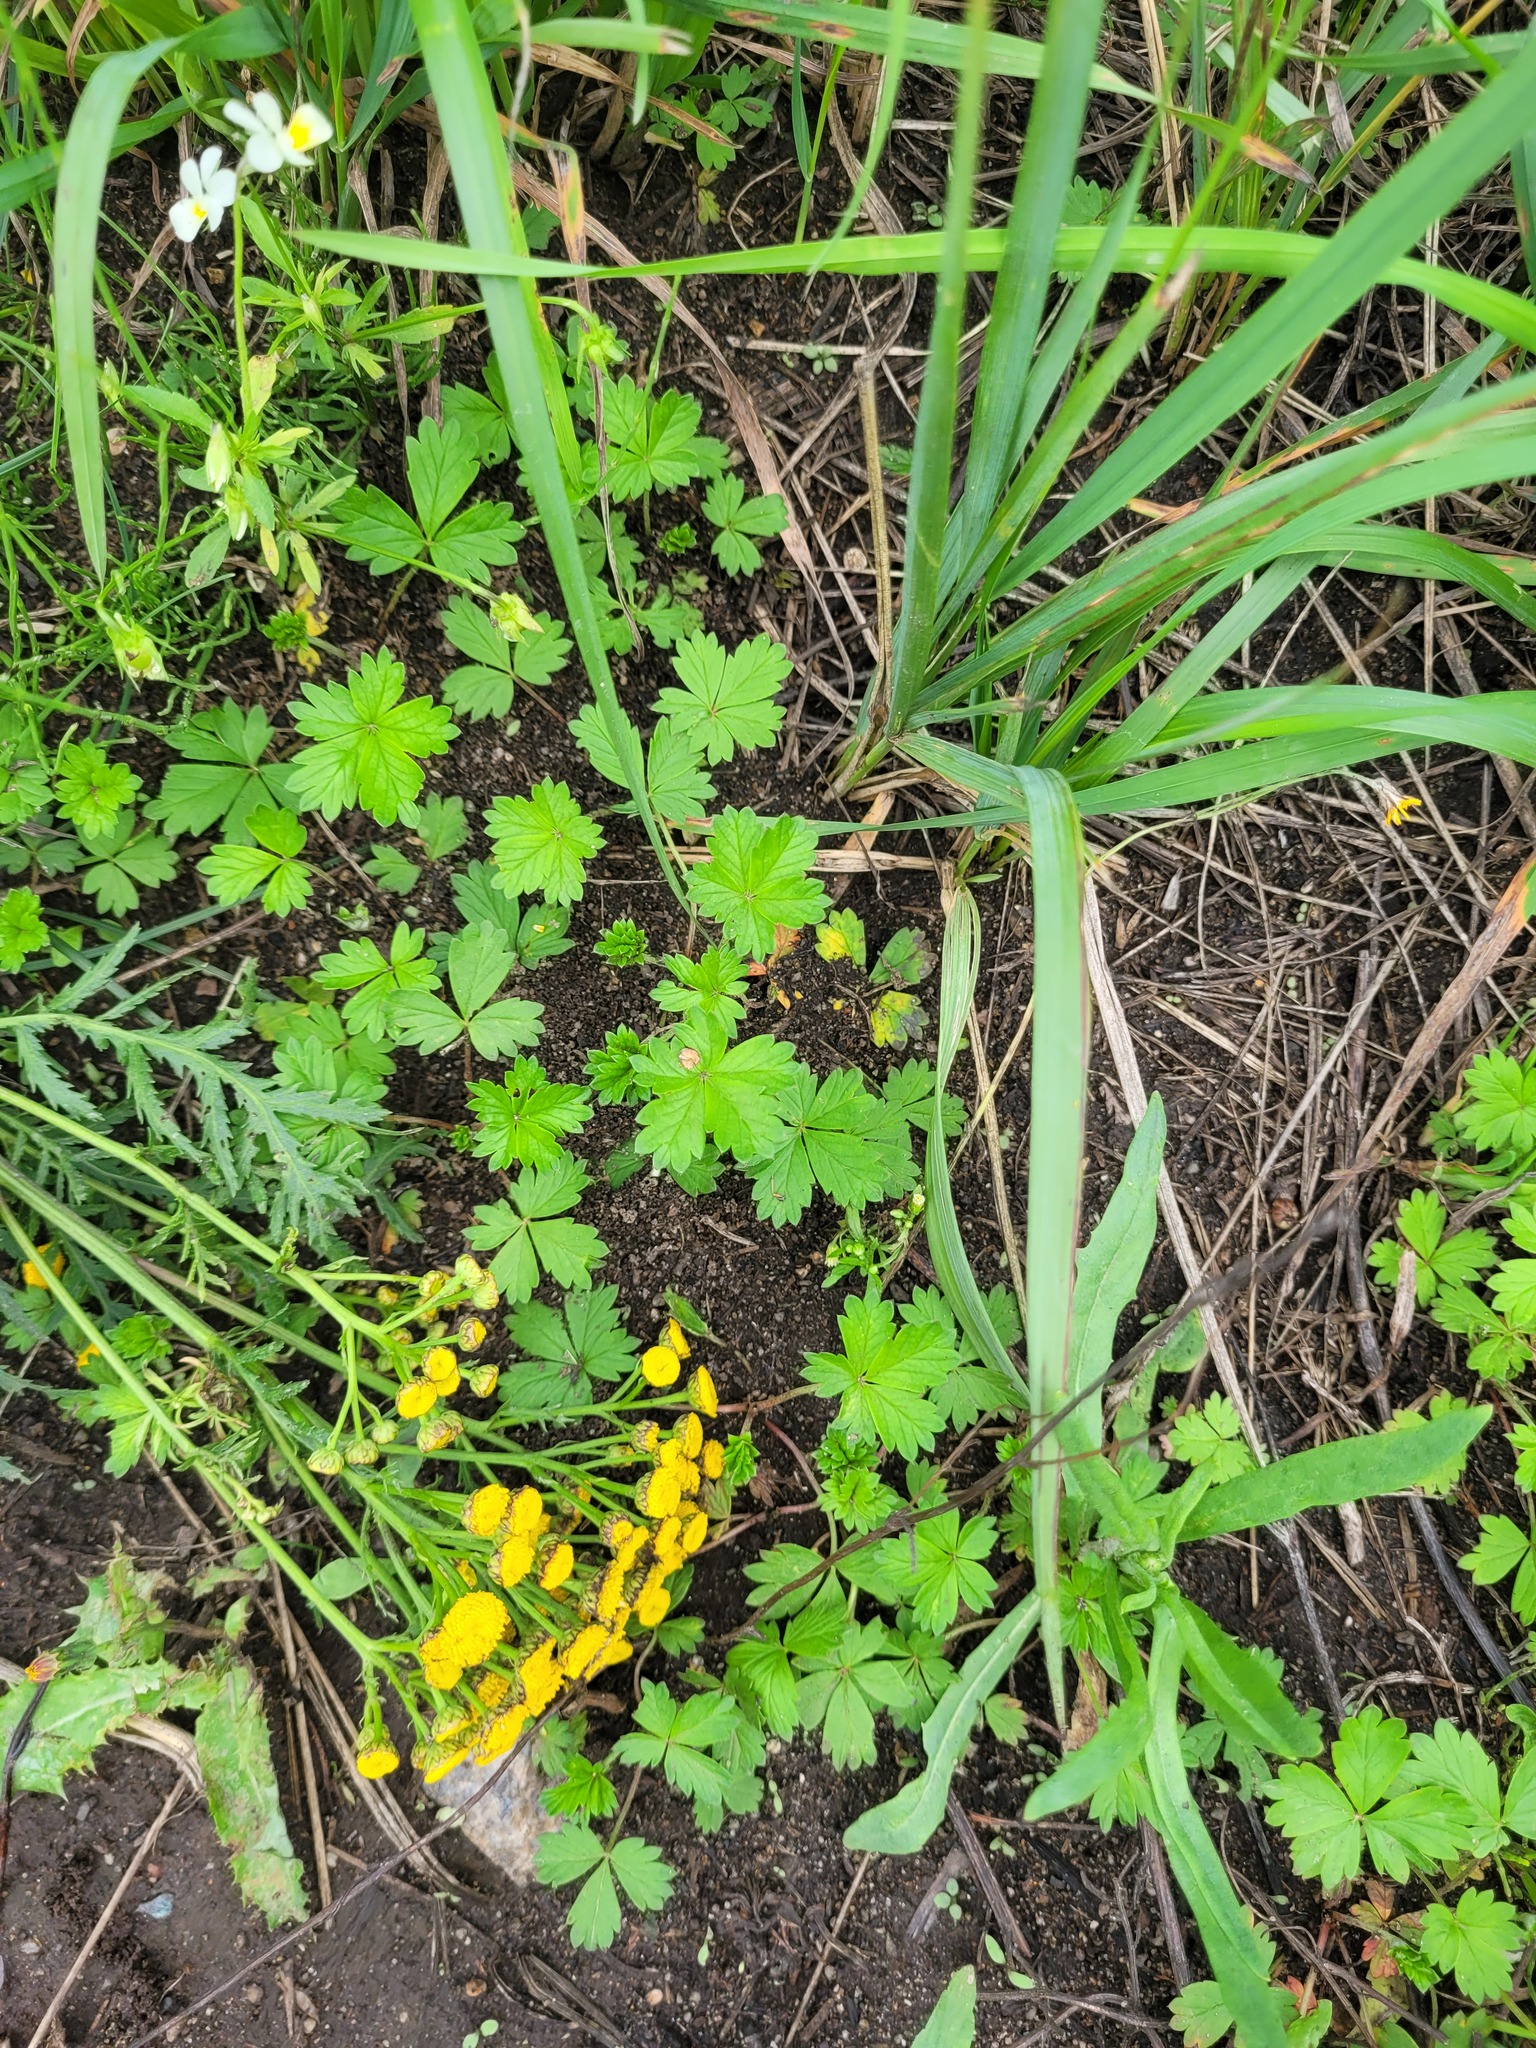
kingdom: Plantae
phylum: Tracheophyta
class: Magnoliopsida
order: Rosales
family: Rosaceae
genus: Potentilla
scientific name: Potentilla argentea
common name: Hoary cinquefoil
